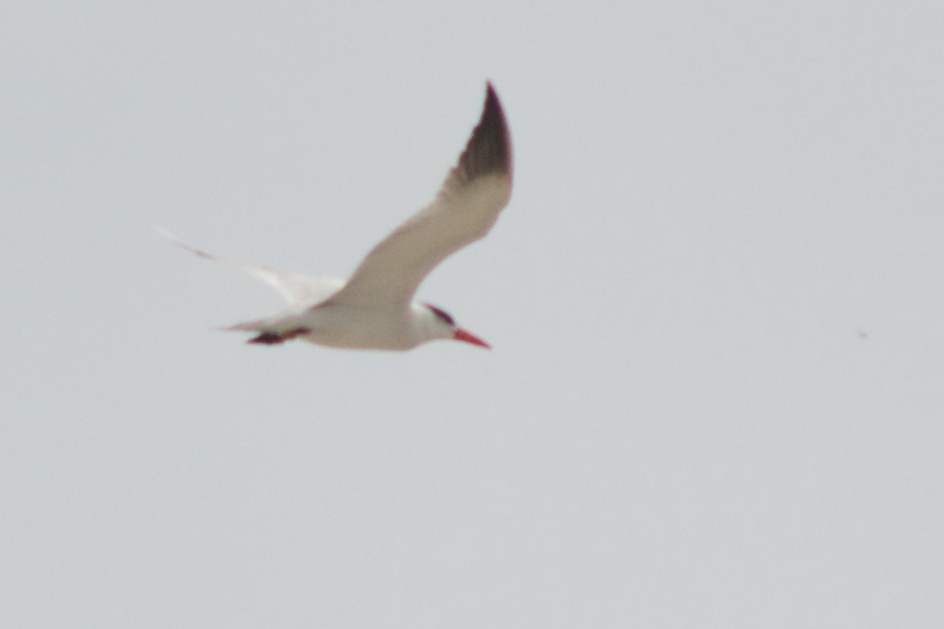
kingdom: Animalia
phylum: Chordata
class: Aves
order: Charadriiformes
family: Laridae
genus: Hydroprogne
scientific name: Hydroprogne caspia
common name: Caspian tern
